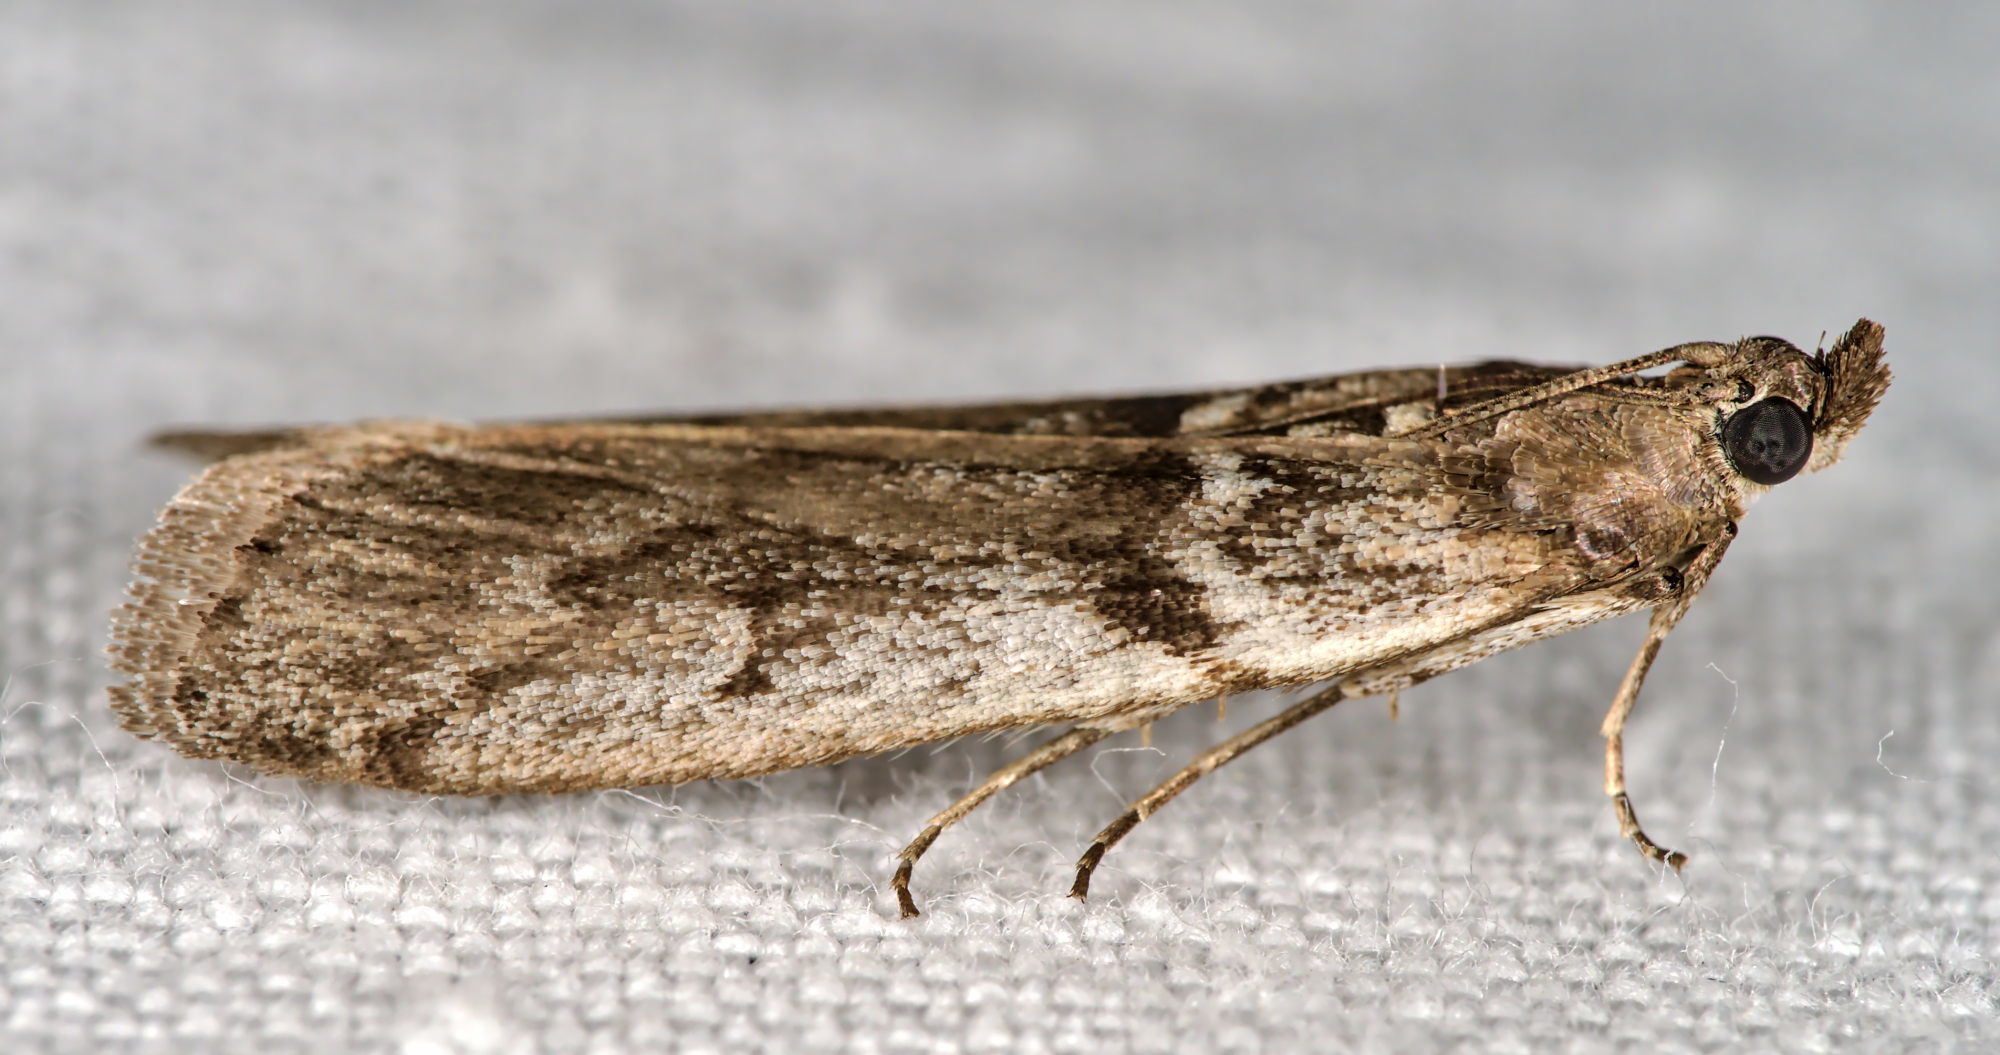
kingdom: Animalia
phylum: Arthropoda
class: Insecta
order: Lepidoptera
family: Pyralidae
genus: Zophodia
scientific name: Zophodia convolutella
